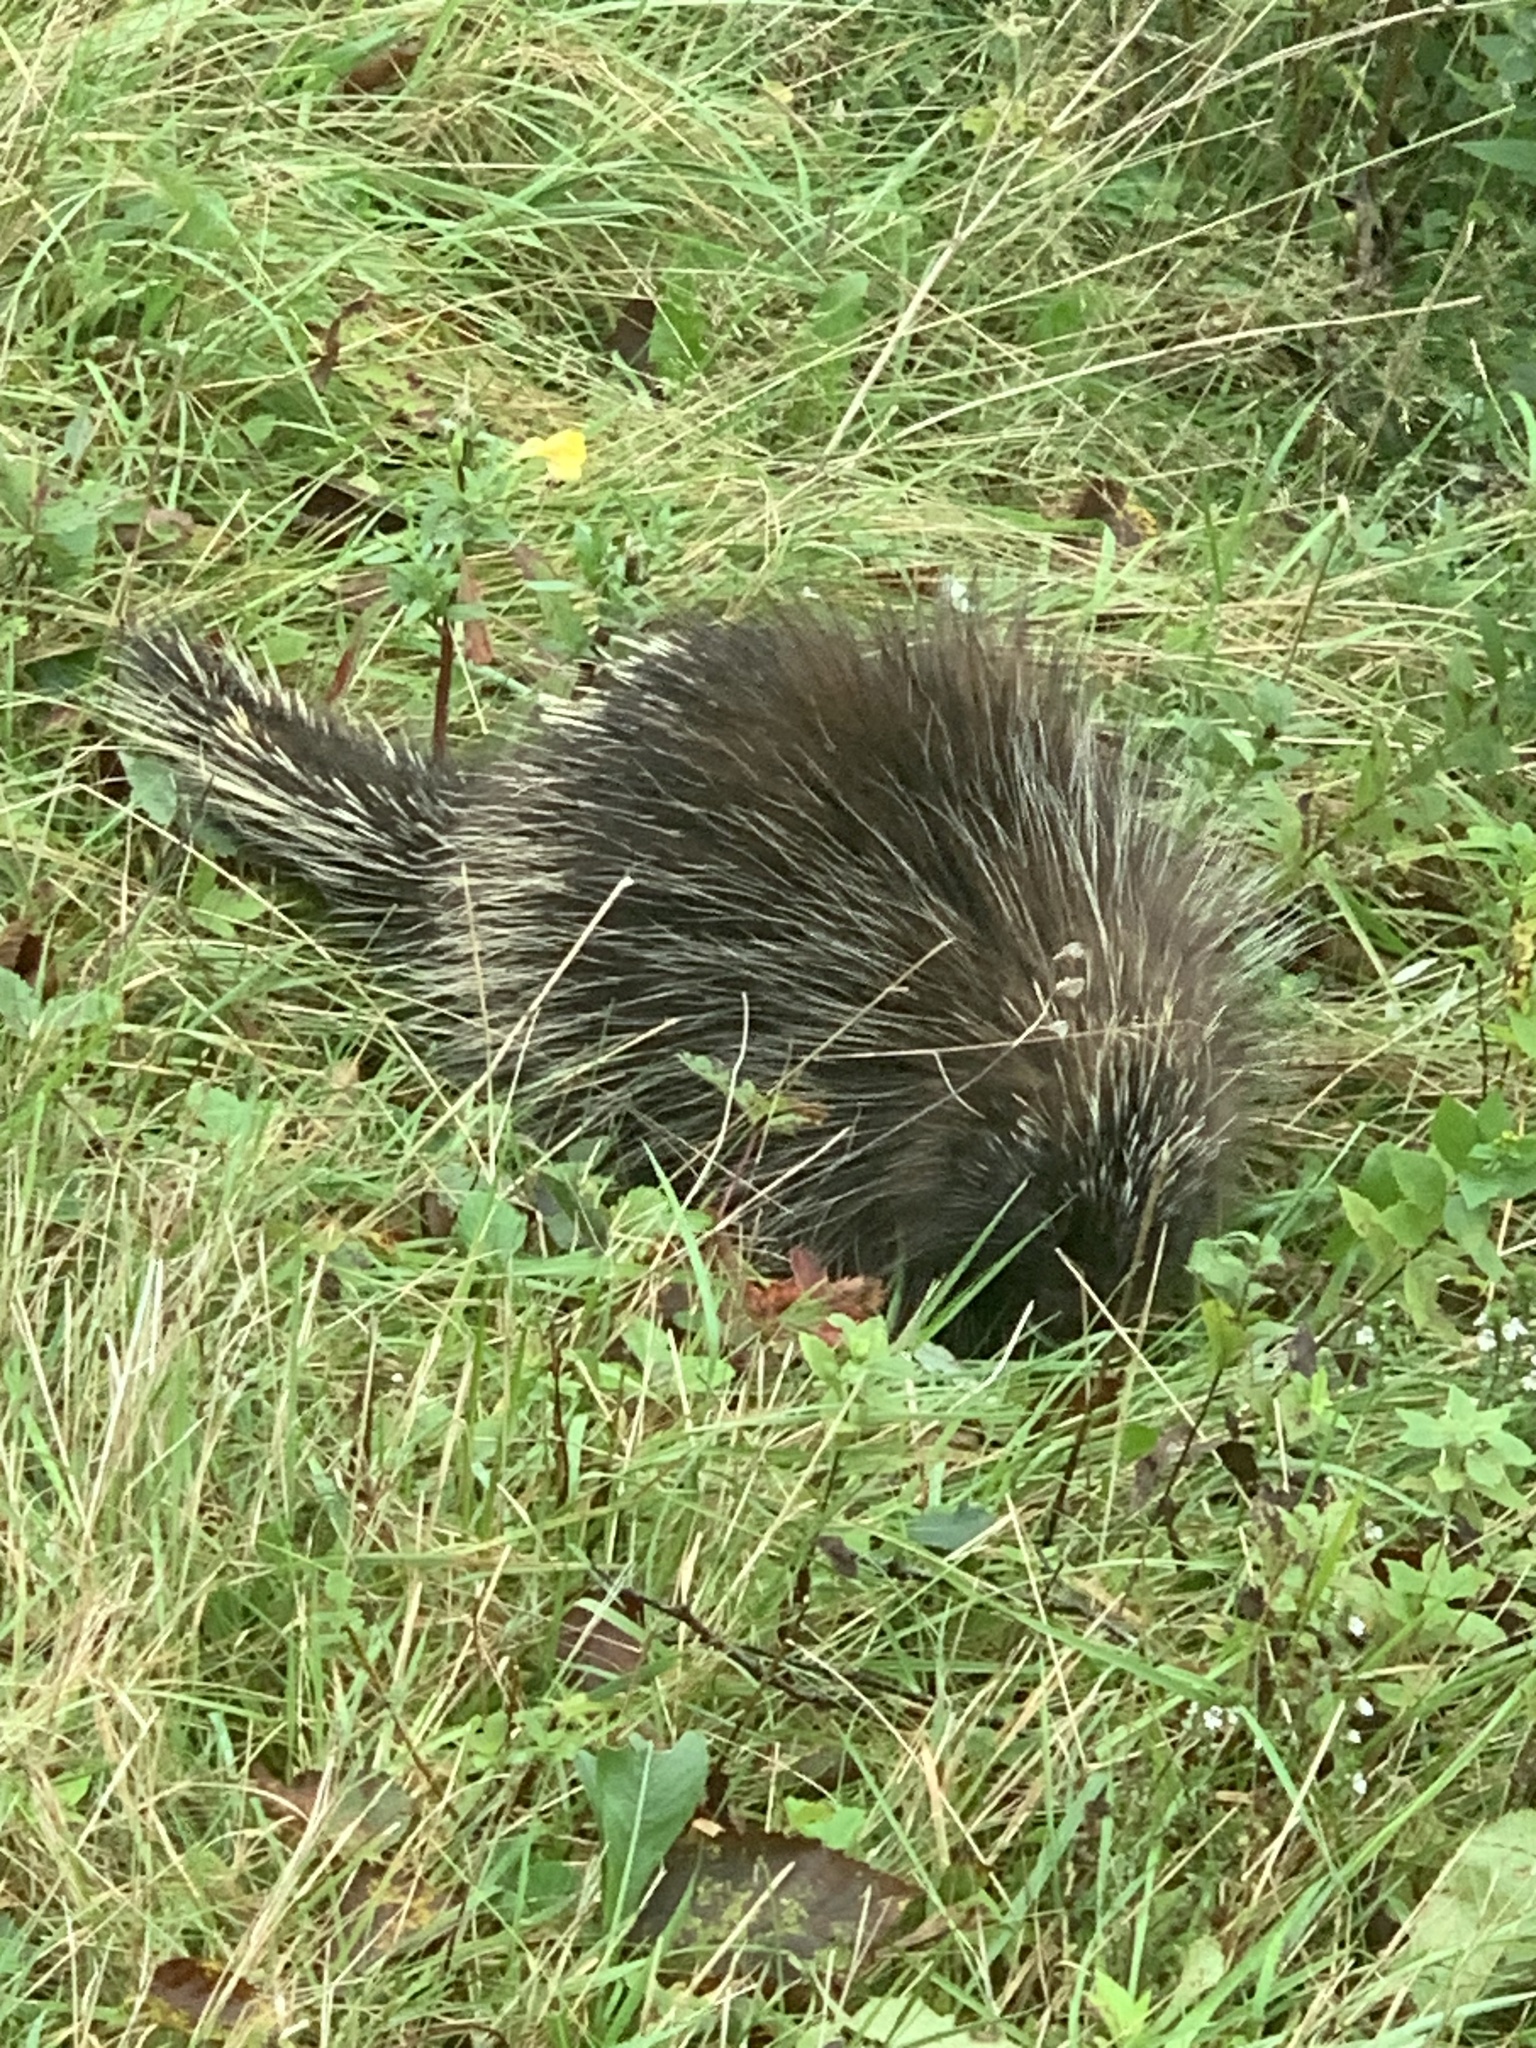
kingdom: Animalia
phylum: Chordata
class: Mammalia
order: Rodentia
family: Erethizontidae
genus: Erethizon
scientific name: Erethizon dorsatus
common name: North american porcupine
